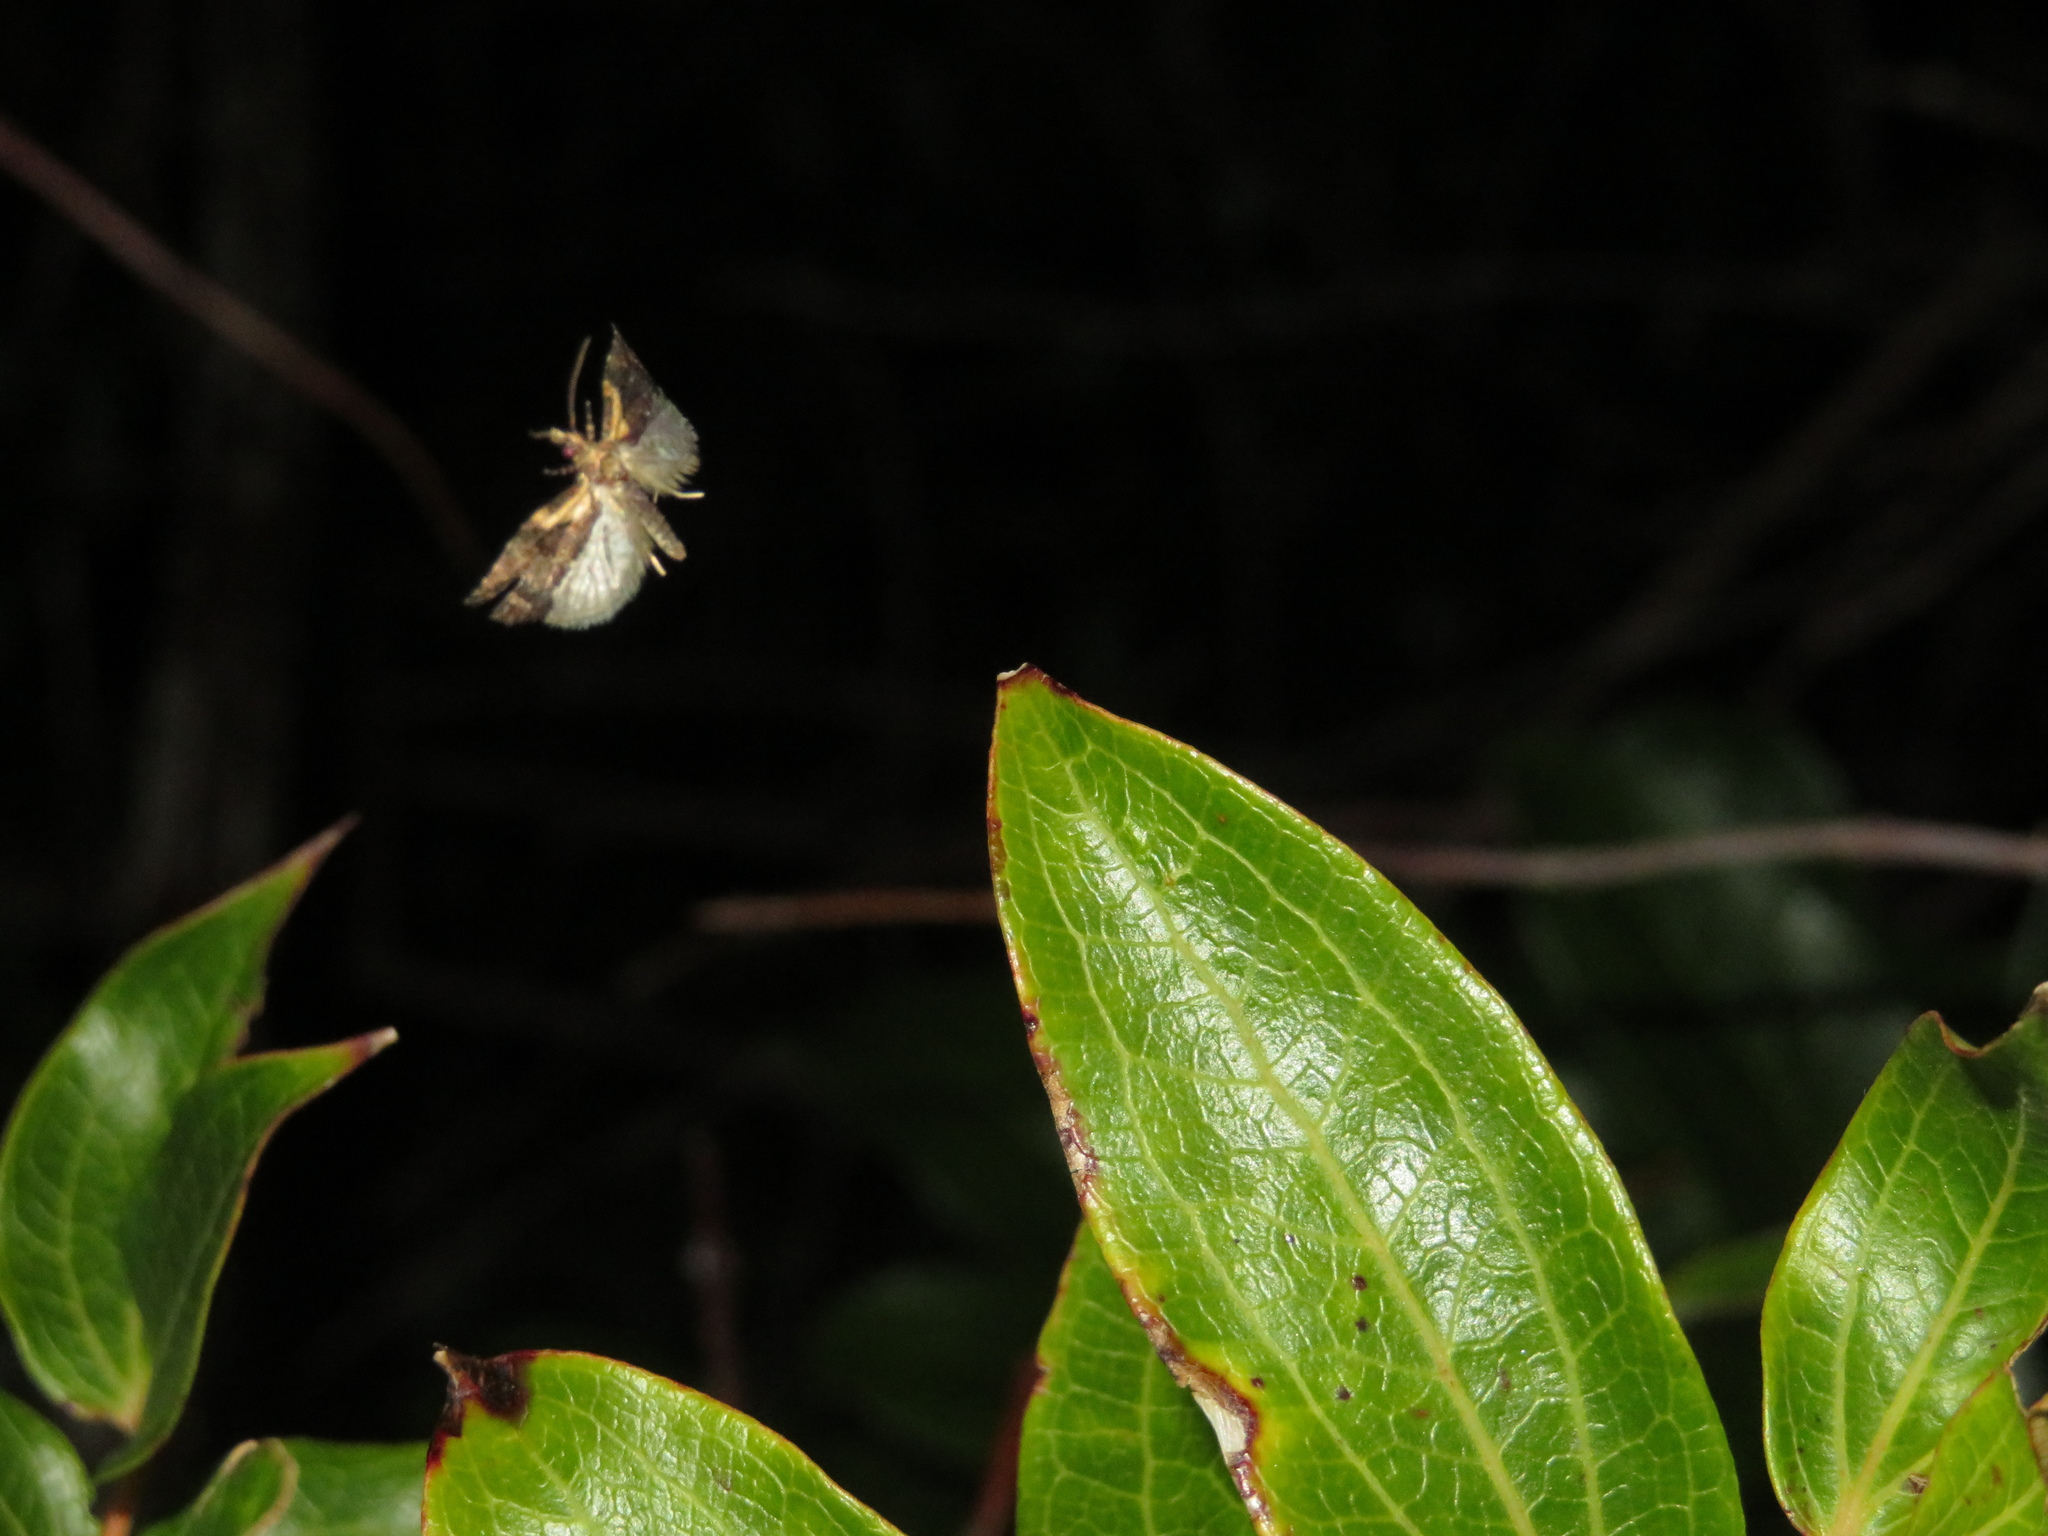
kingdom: Animalia
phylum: Arthropoda
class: Insecta
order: Lepidoptera
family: Tortricidae
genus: Capua
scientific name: Capua intractana
